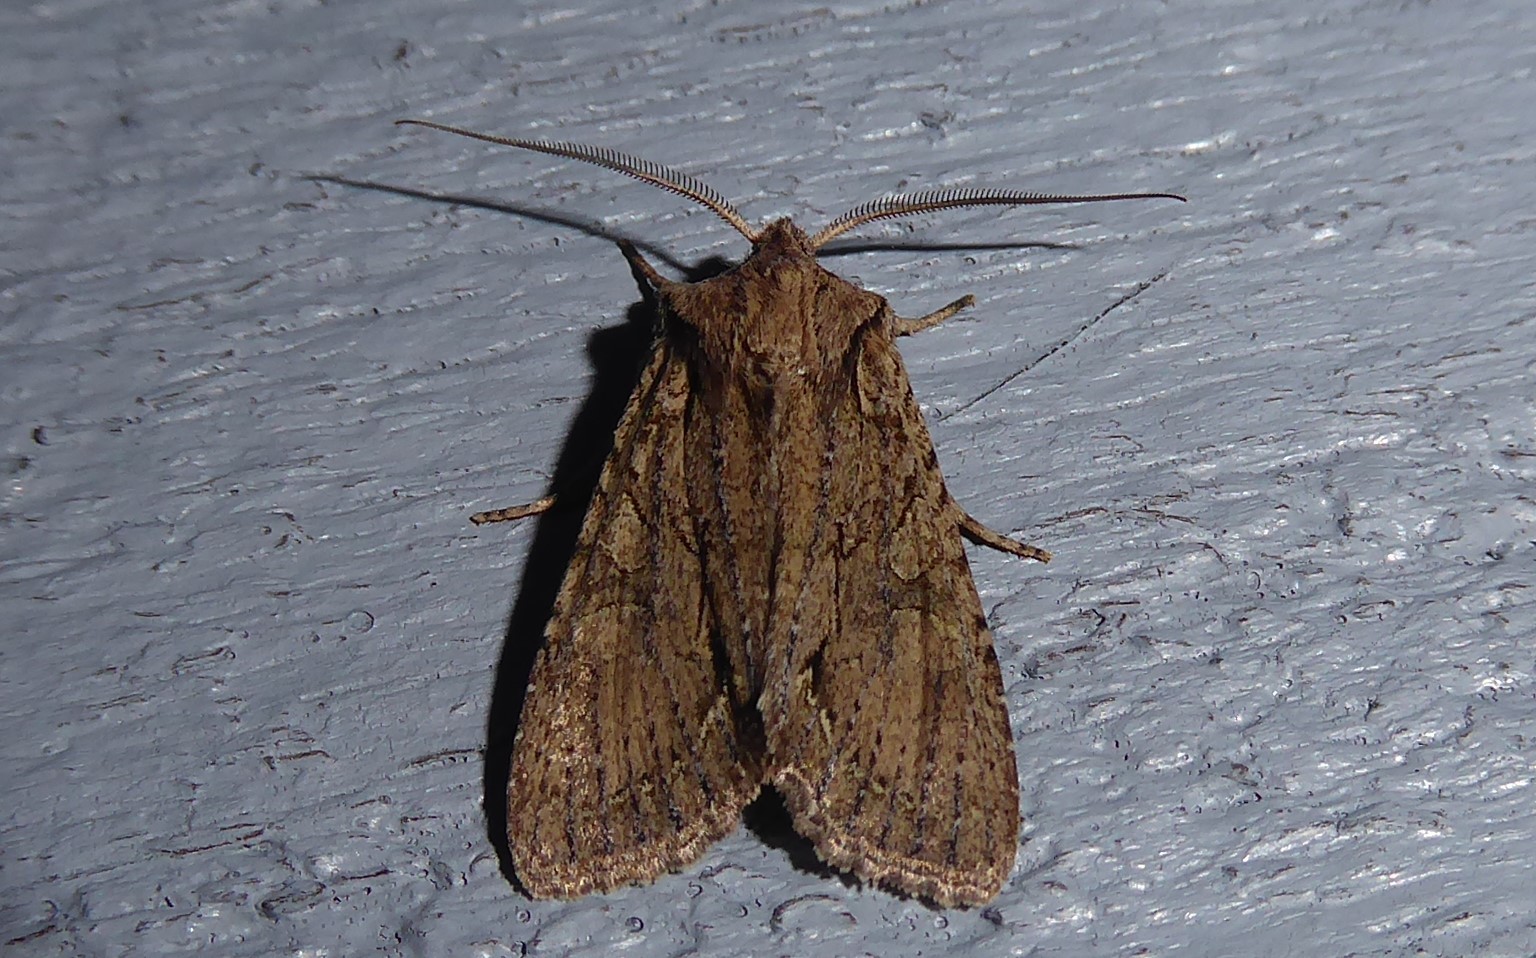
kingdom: Animalia
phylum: Arthropoda
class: Insecta
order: Lepidoptera
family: Noctuidae
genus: Ichneutica
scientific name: Ichneutica
